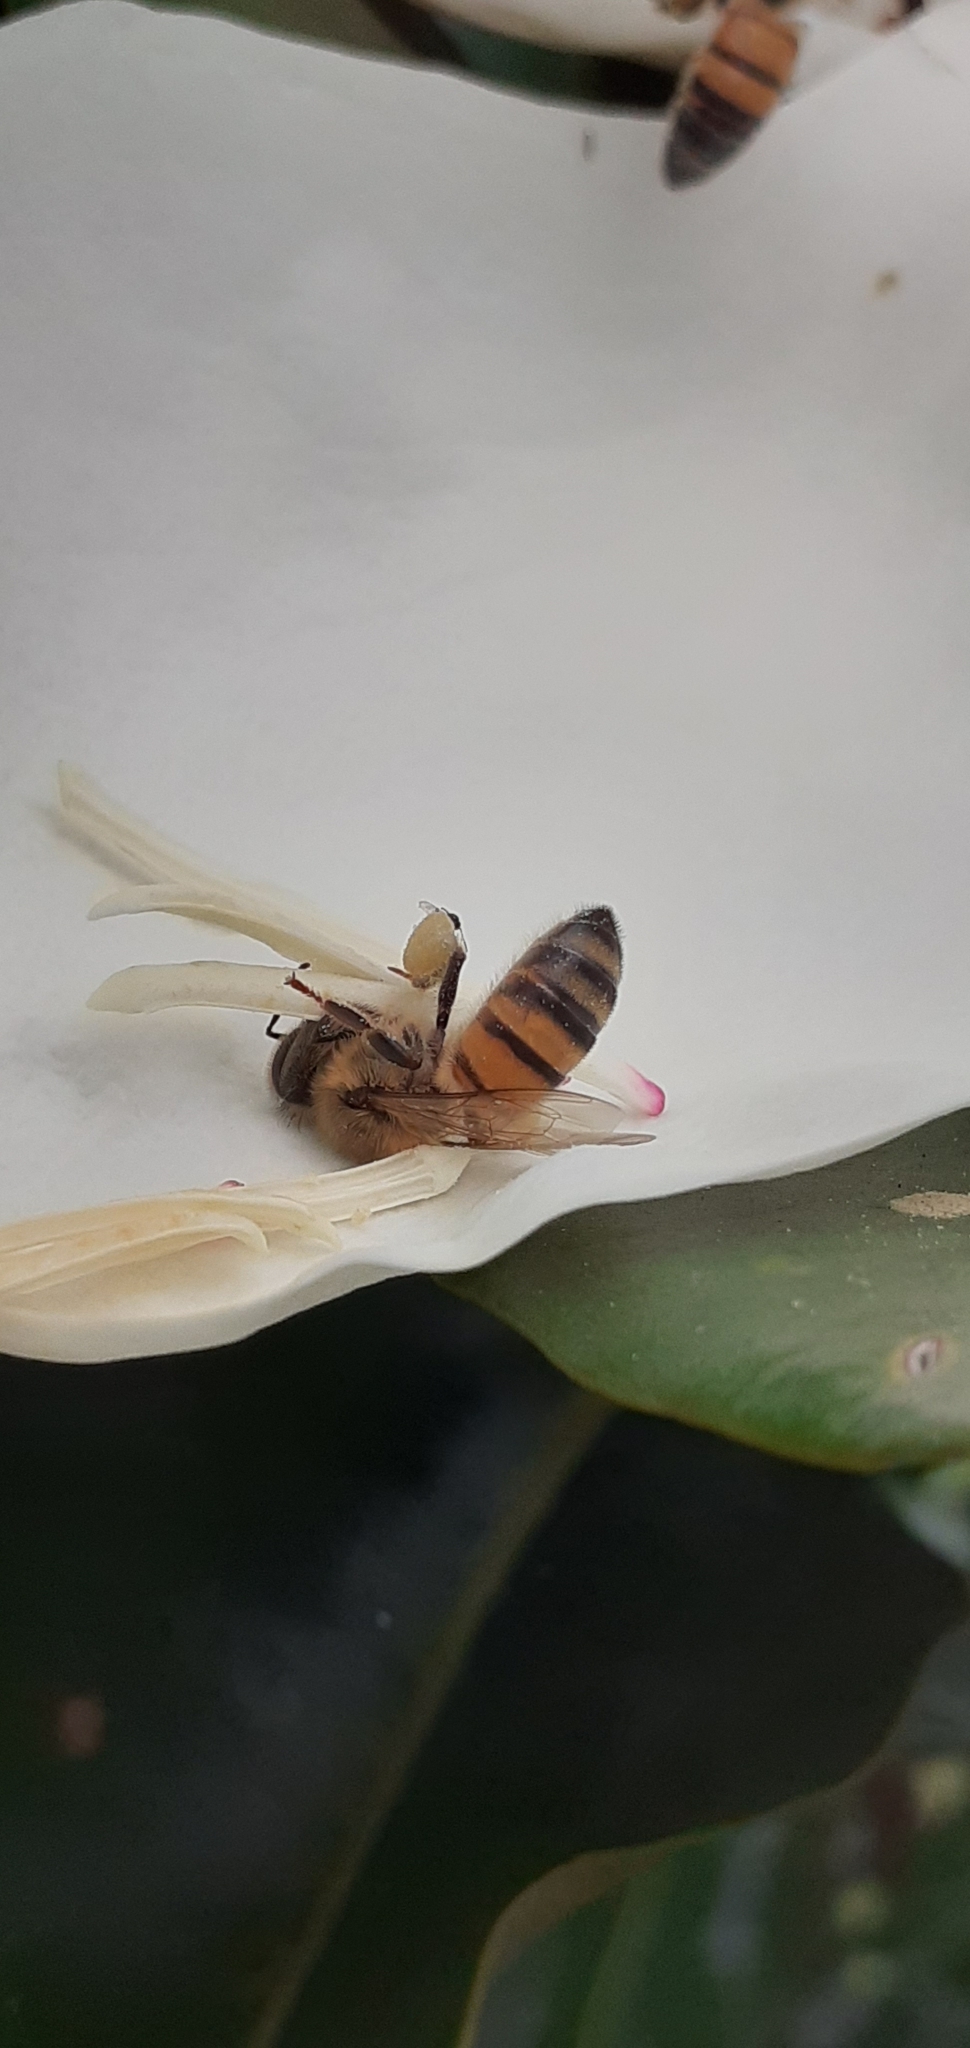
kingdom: Animalia
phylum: Arthropoda
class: Insecta
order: Hymenoptera
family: Apidae
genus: Apis
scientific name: Apis mellifera
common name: Honey bee
